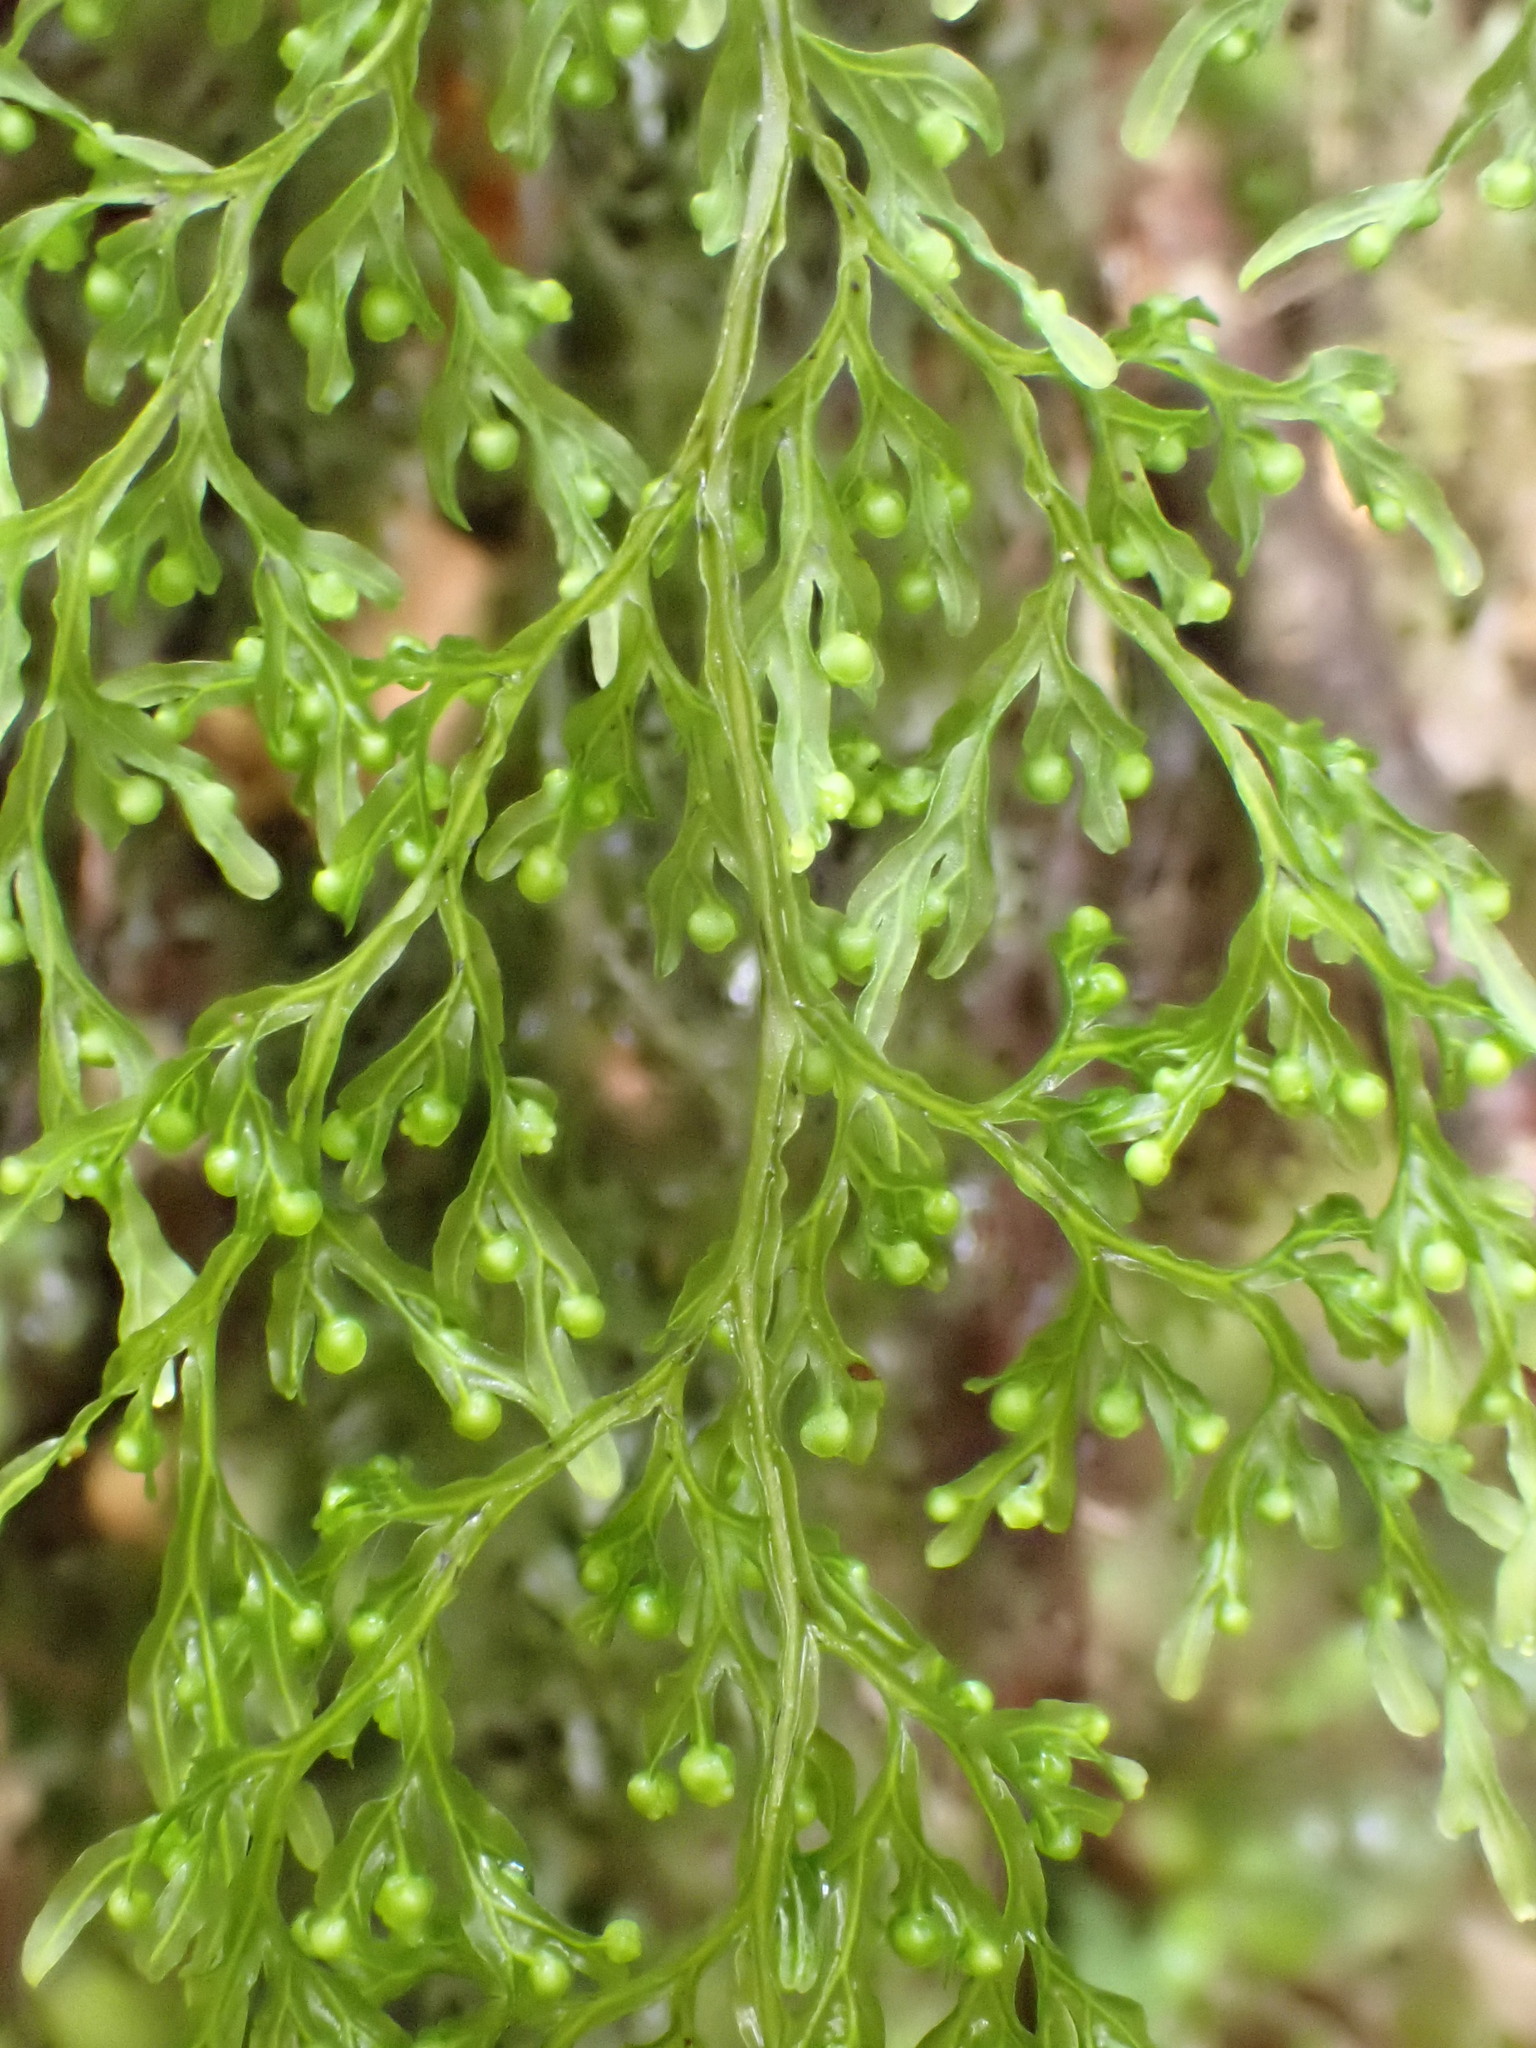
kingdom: Plantae
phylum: Tracheophyta
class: Polypodiopsida
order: Hymenophyllales
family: Hymenophyllaceae
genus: Hymenophyllum
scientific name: Hymenophyllum pulcherrimum
